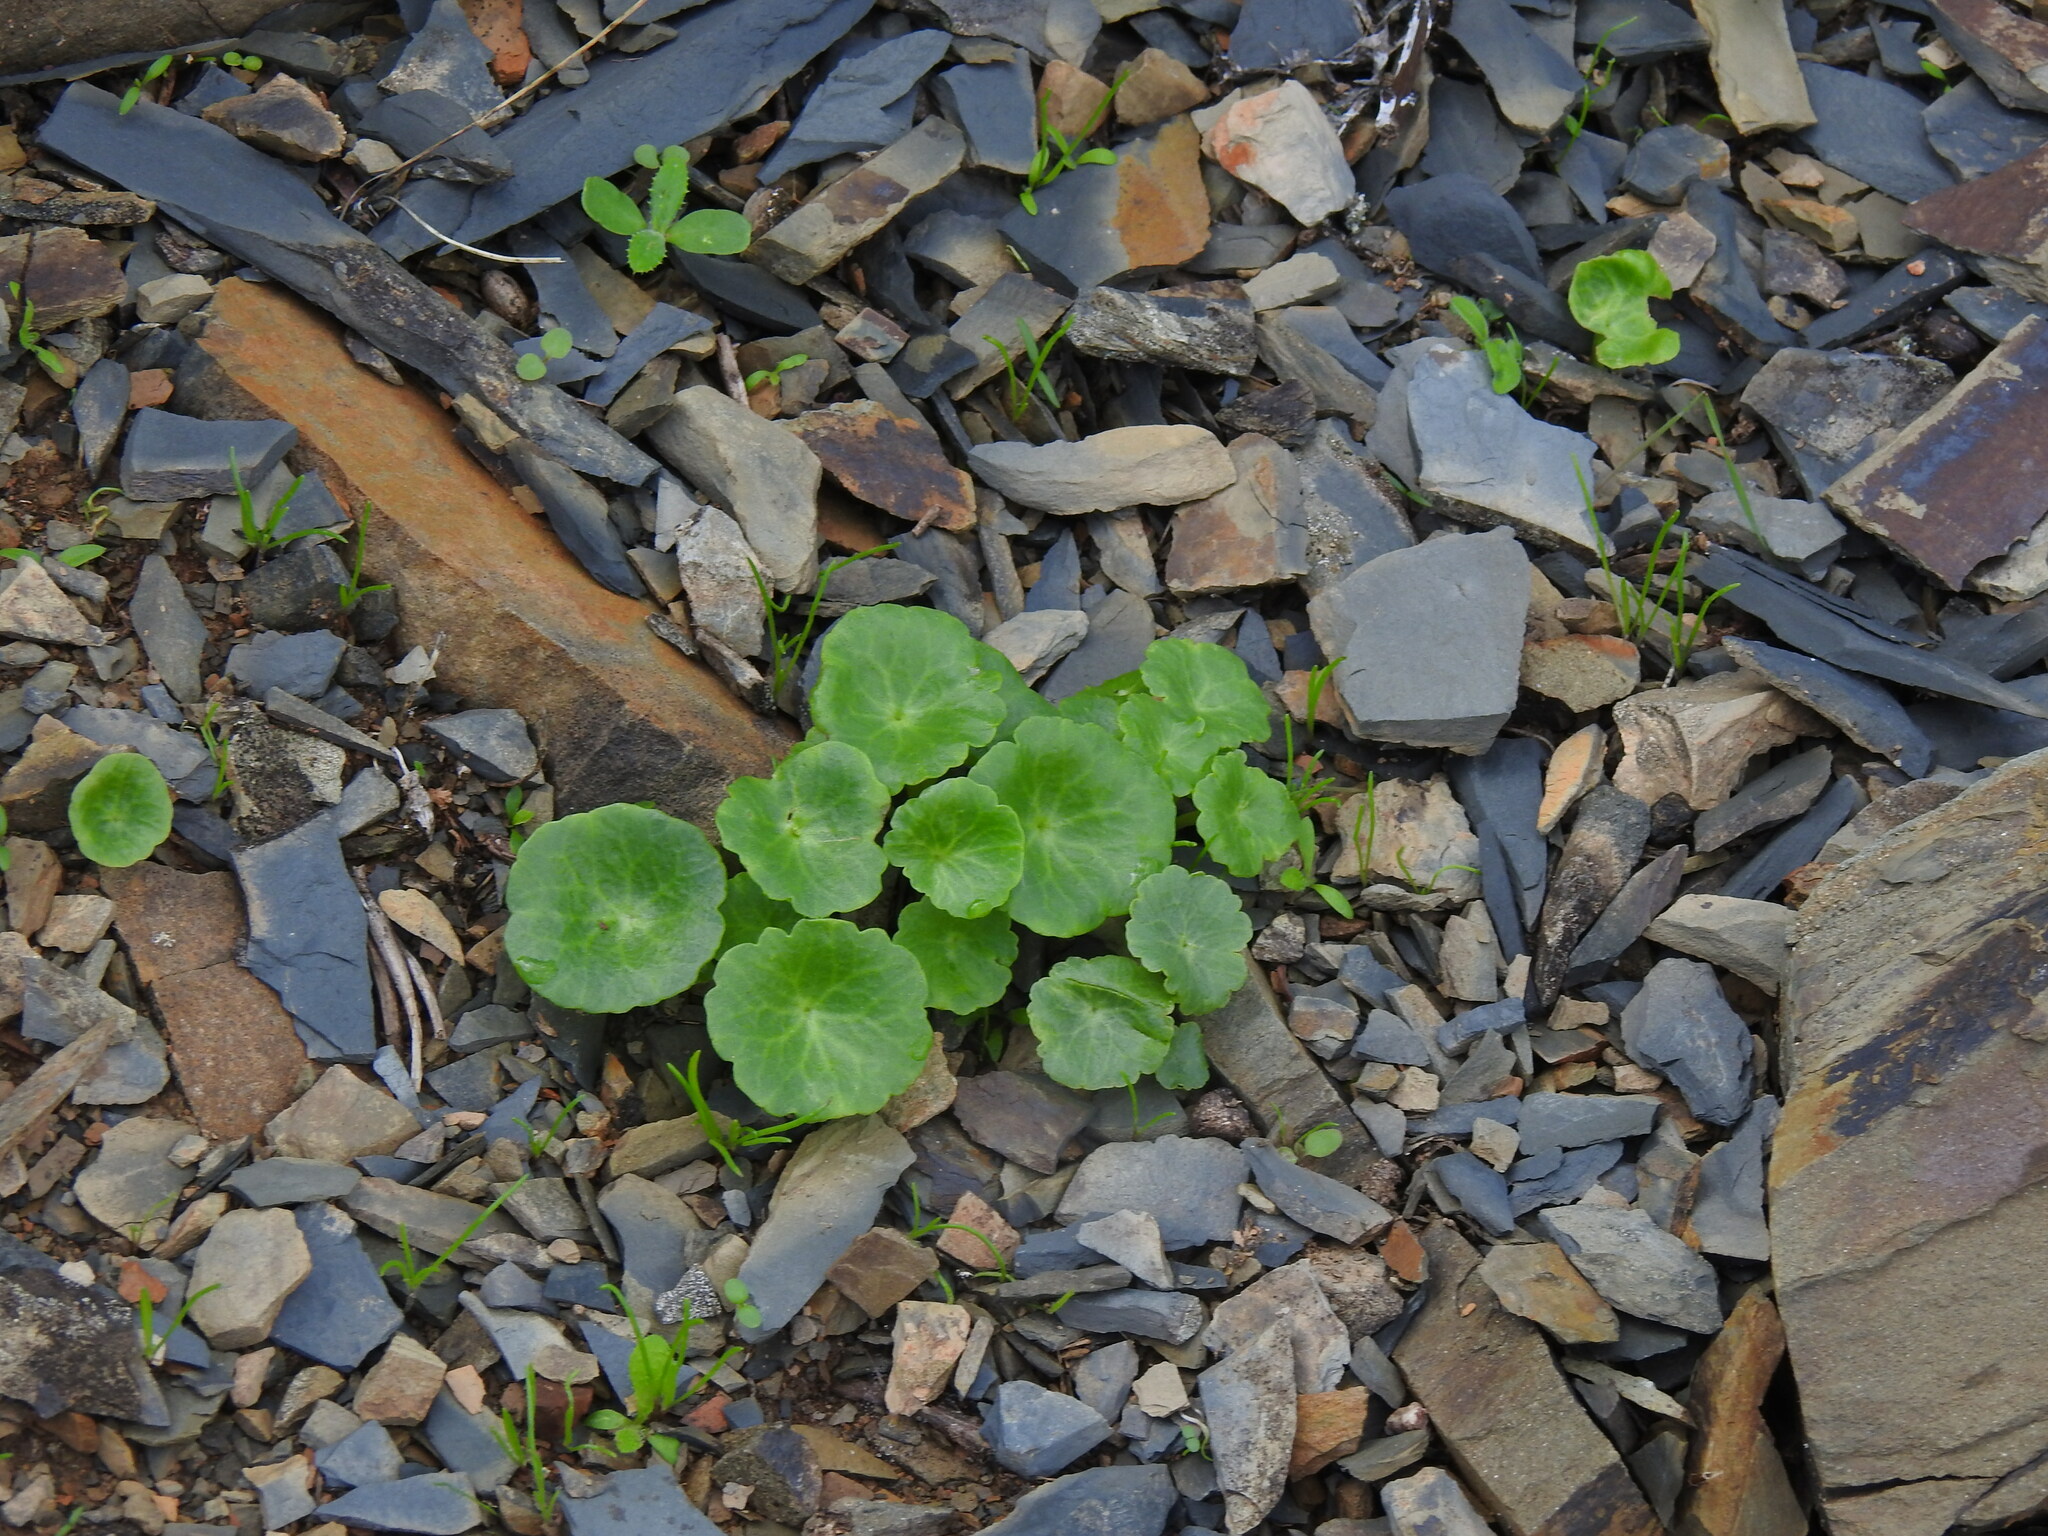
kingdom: Plantae
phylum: Tracheophyta
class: Magnoliopsida
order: Saxifragales
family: Crassulaceae
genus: Umbilicus
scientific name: Umbilicus rupestris
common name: Navelwort
